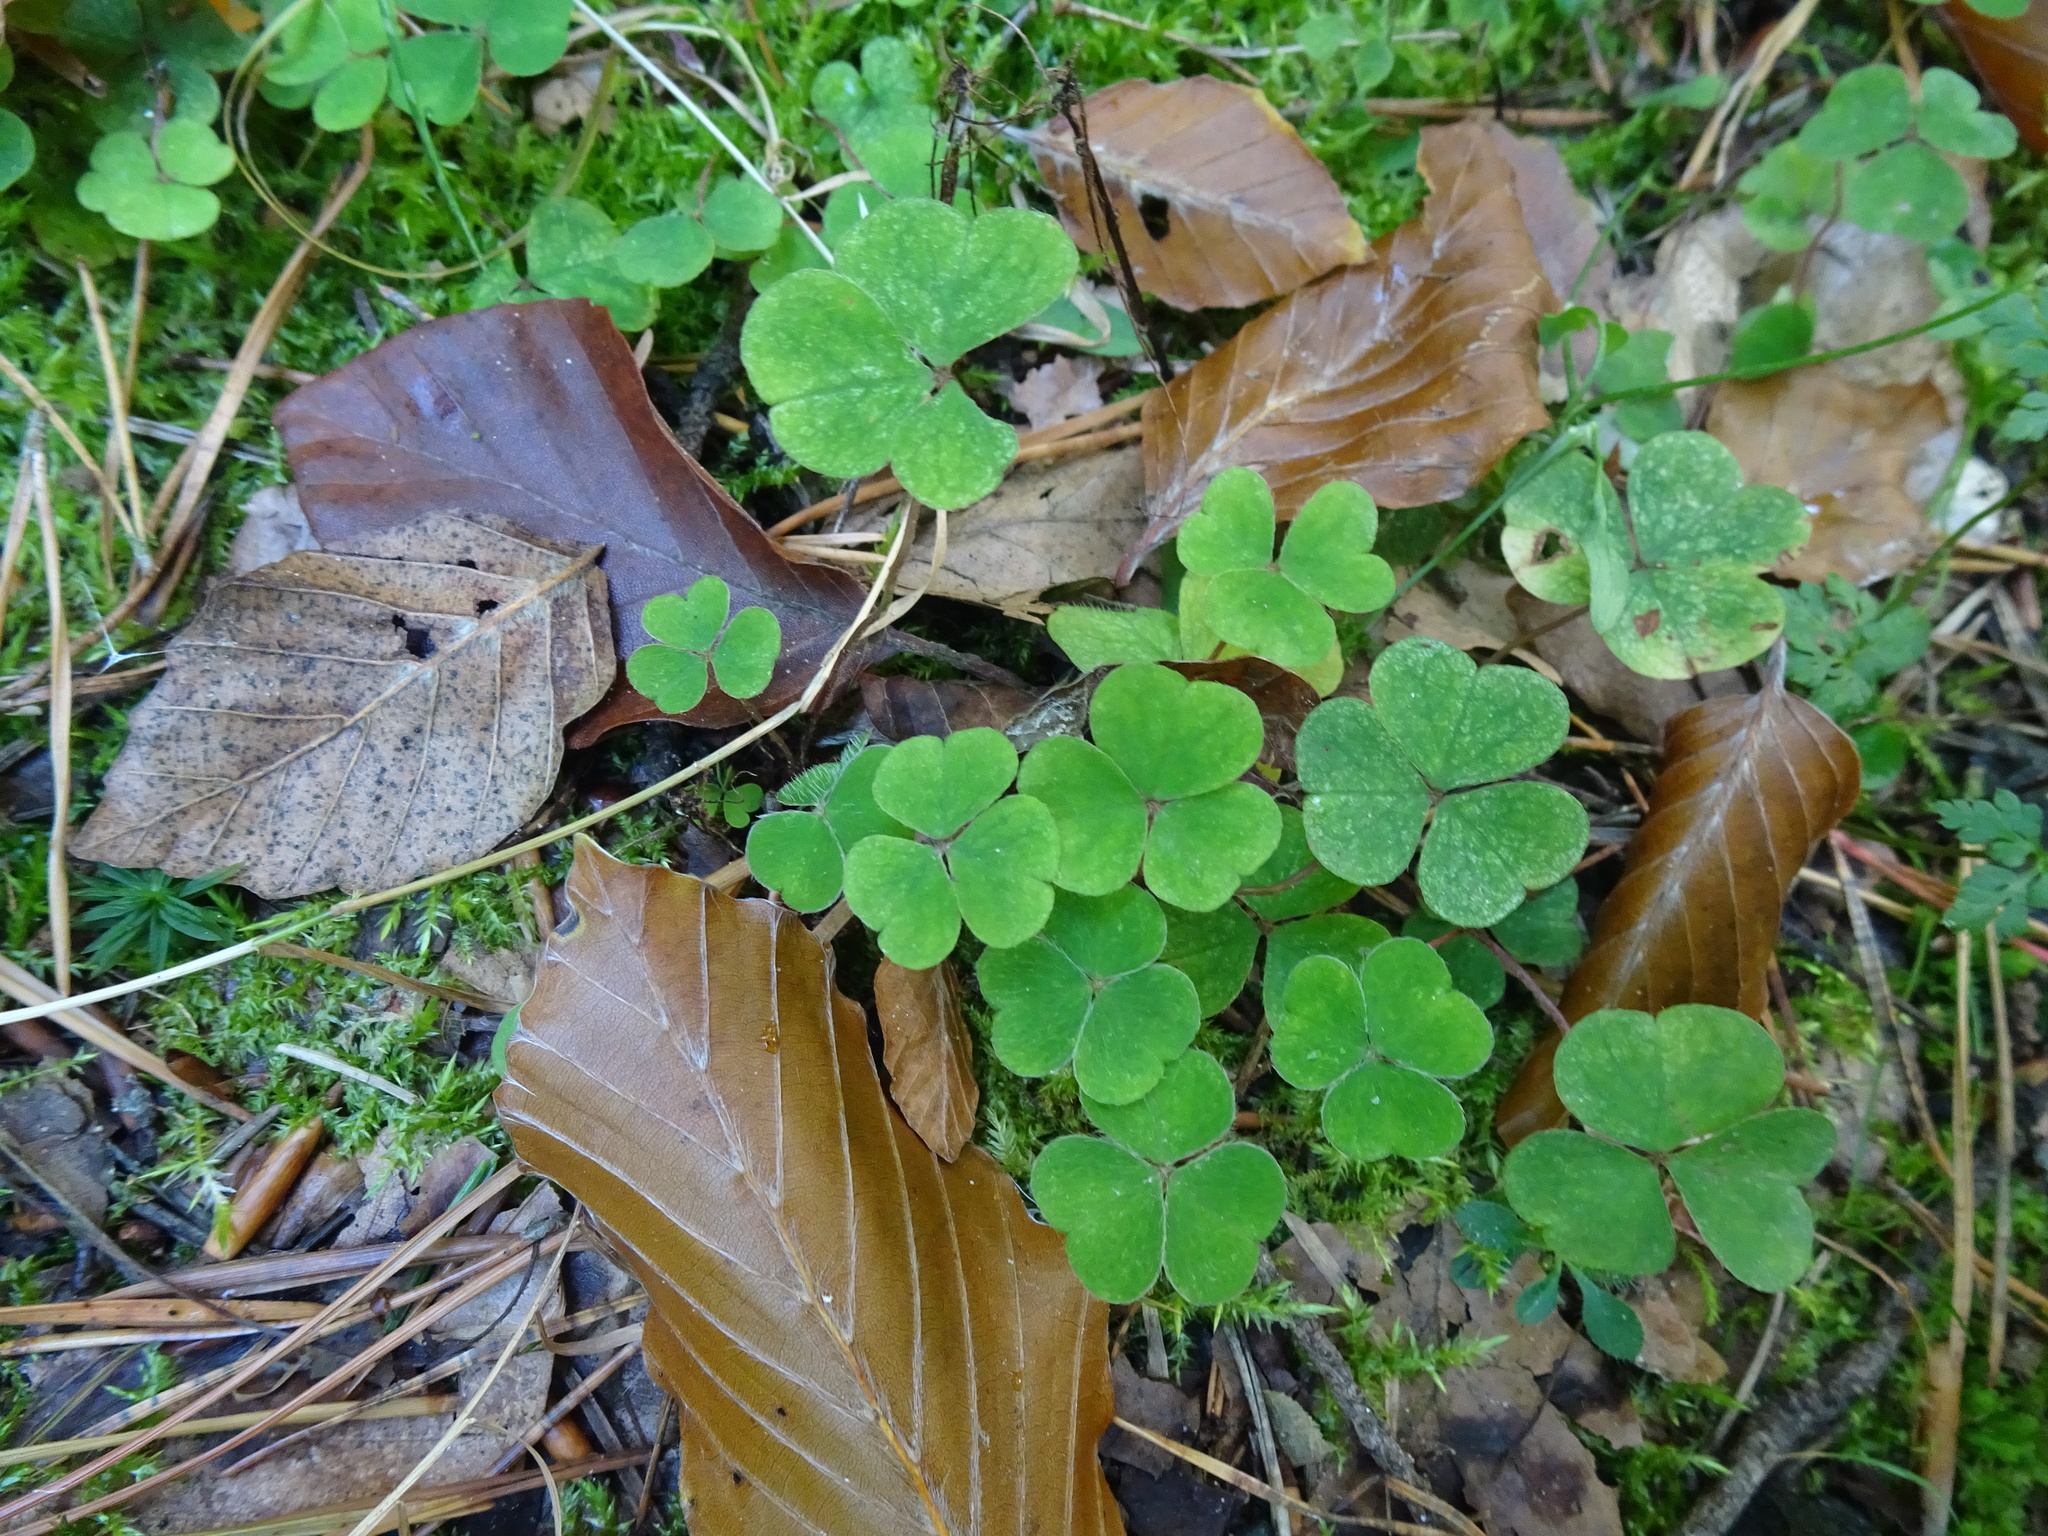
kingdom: Plantae
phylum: Tracheophyta
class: Magnoliopsida
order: Oxalidales
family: Oxalidaceae
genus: Oxalis
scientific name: Oxalis acetosella
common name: Wood-sorrel
